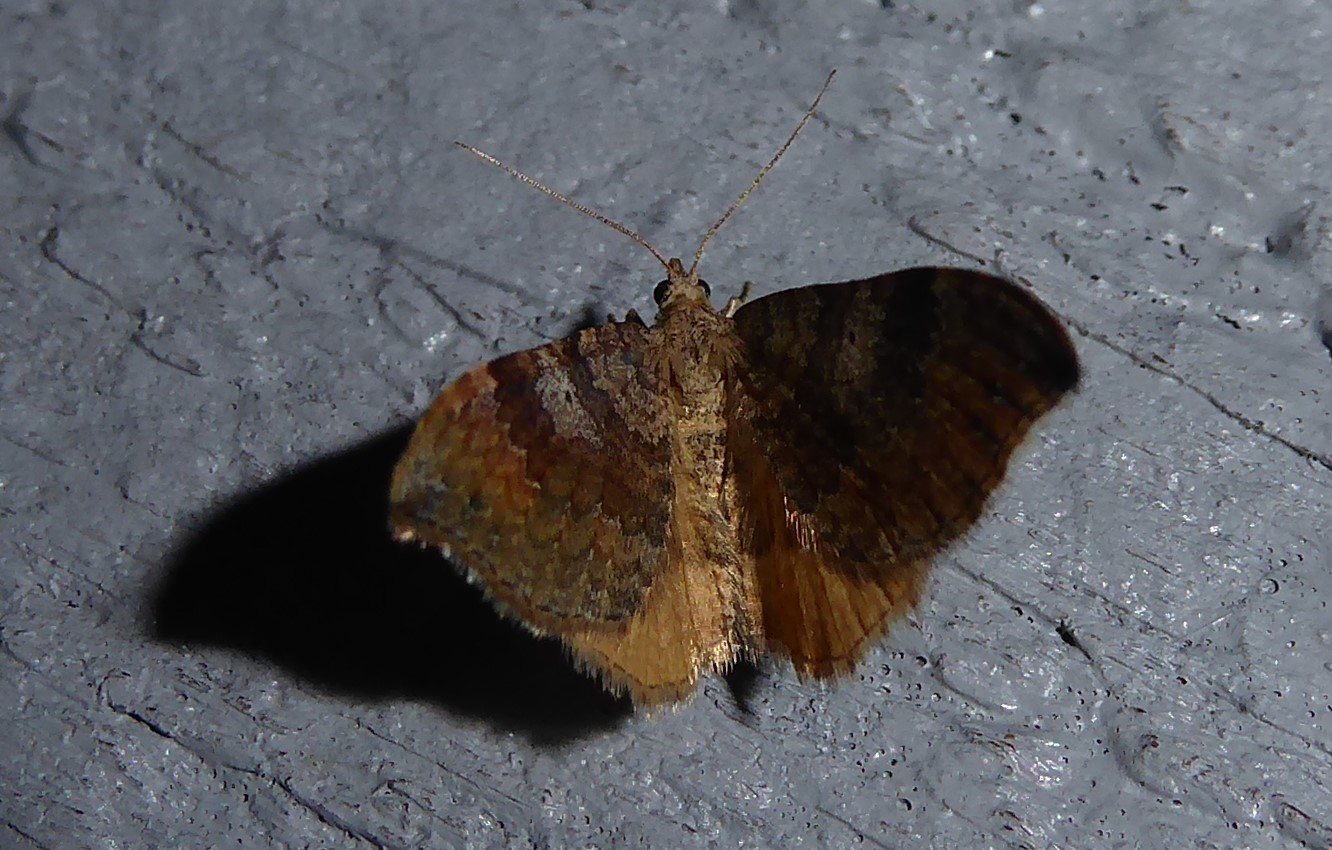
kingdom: Animalia
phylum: Arthropoda
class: Insecta
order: Lepidoptera
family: Geometridae
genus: Homodotis
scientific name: Homodotis megaspilata
